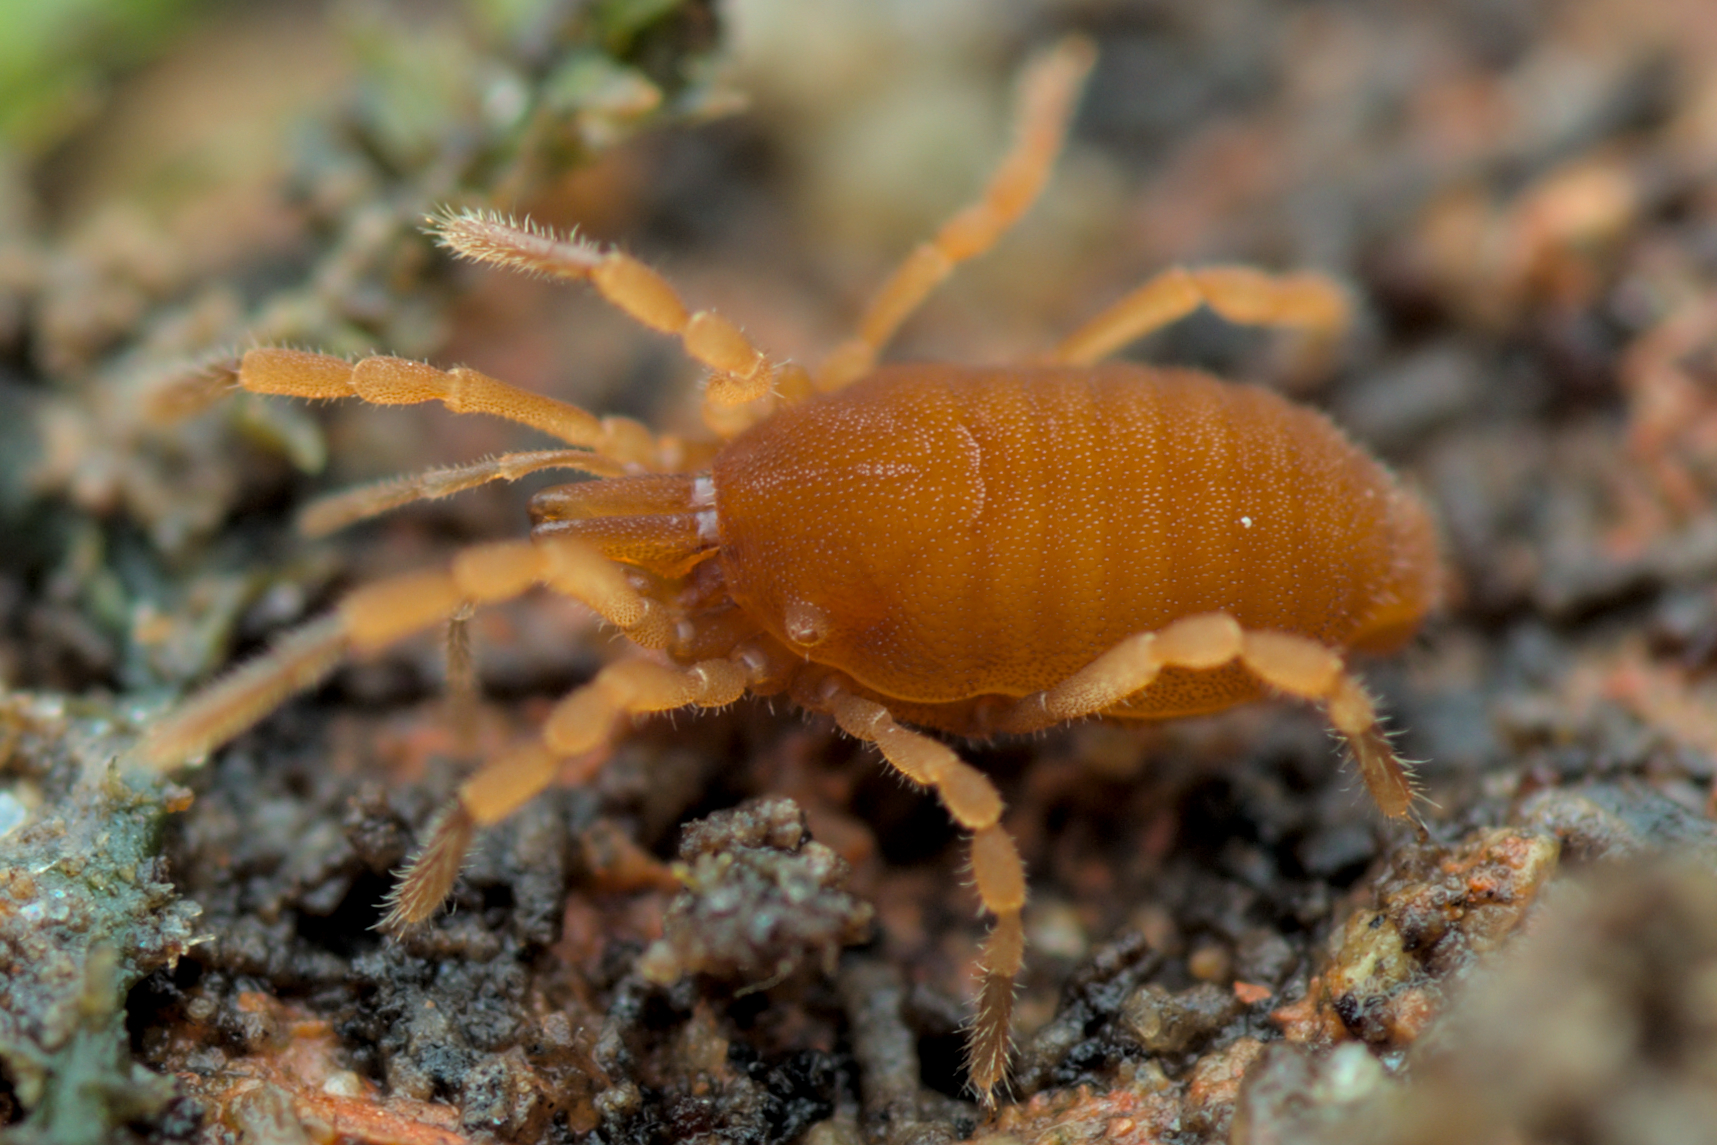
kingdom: Animalia
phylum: Arthropoda
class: Arachnida
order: Opiliones
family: Sironidae
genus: Siro
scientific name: Siro rubens
